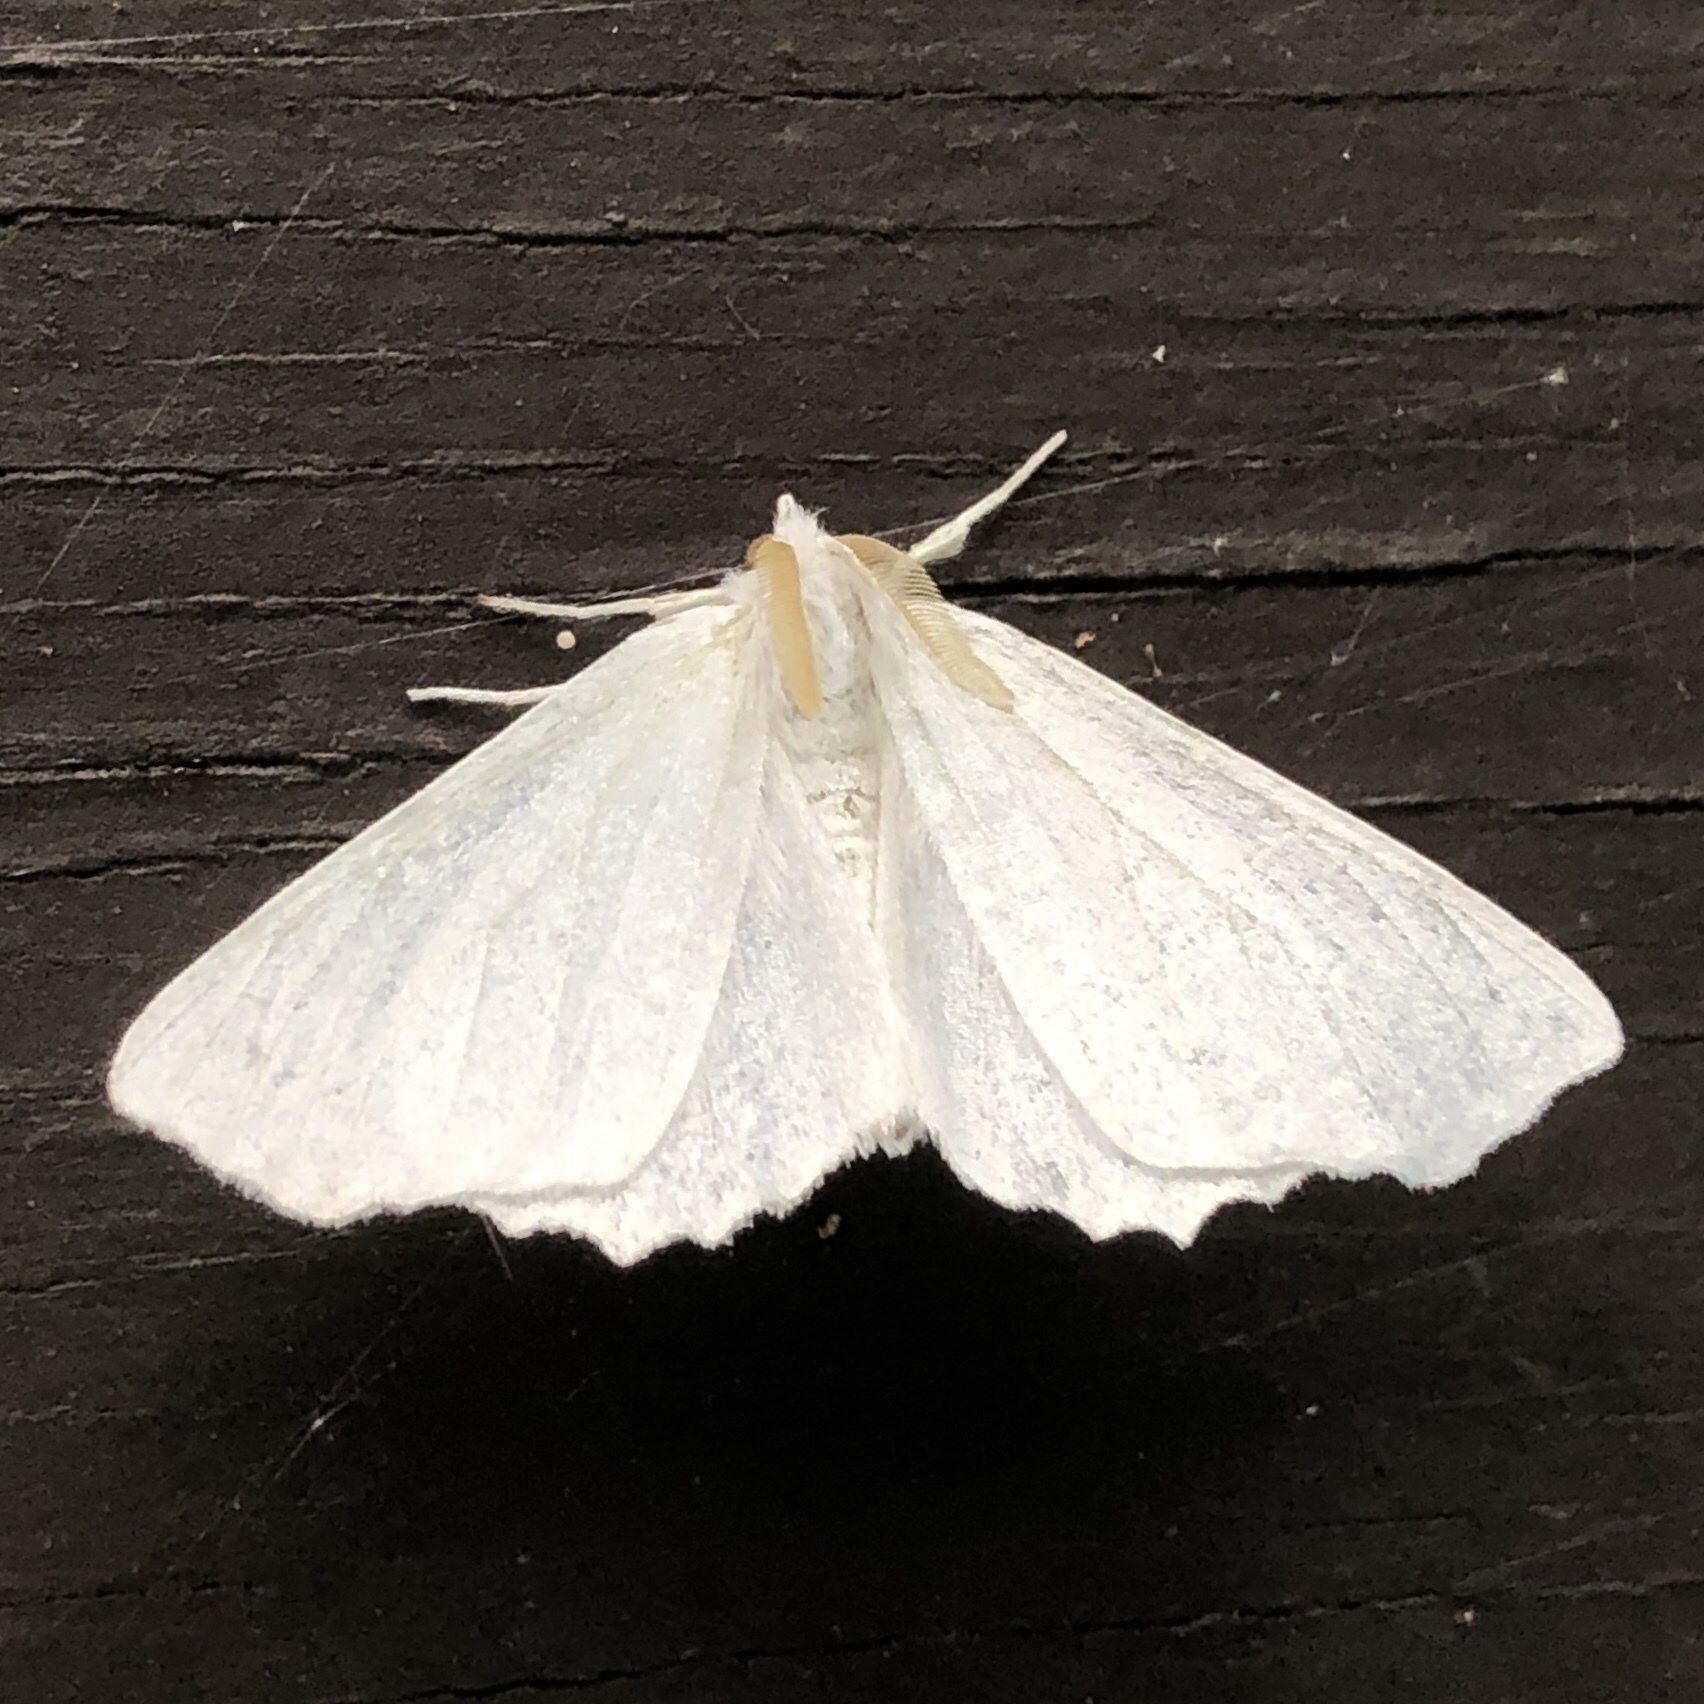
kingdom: Animalia
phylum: Arthropoda
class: Insecta
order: Lepidoptera
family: Geometridae
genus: Ennomos
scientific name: Ennomos subsignaria
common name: Elm spanworm
